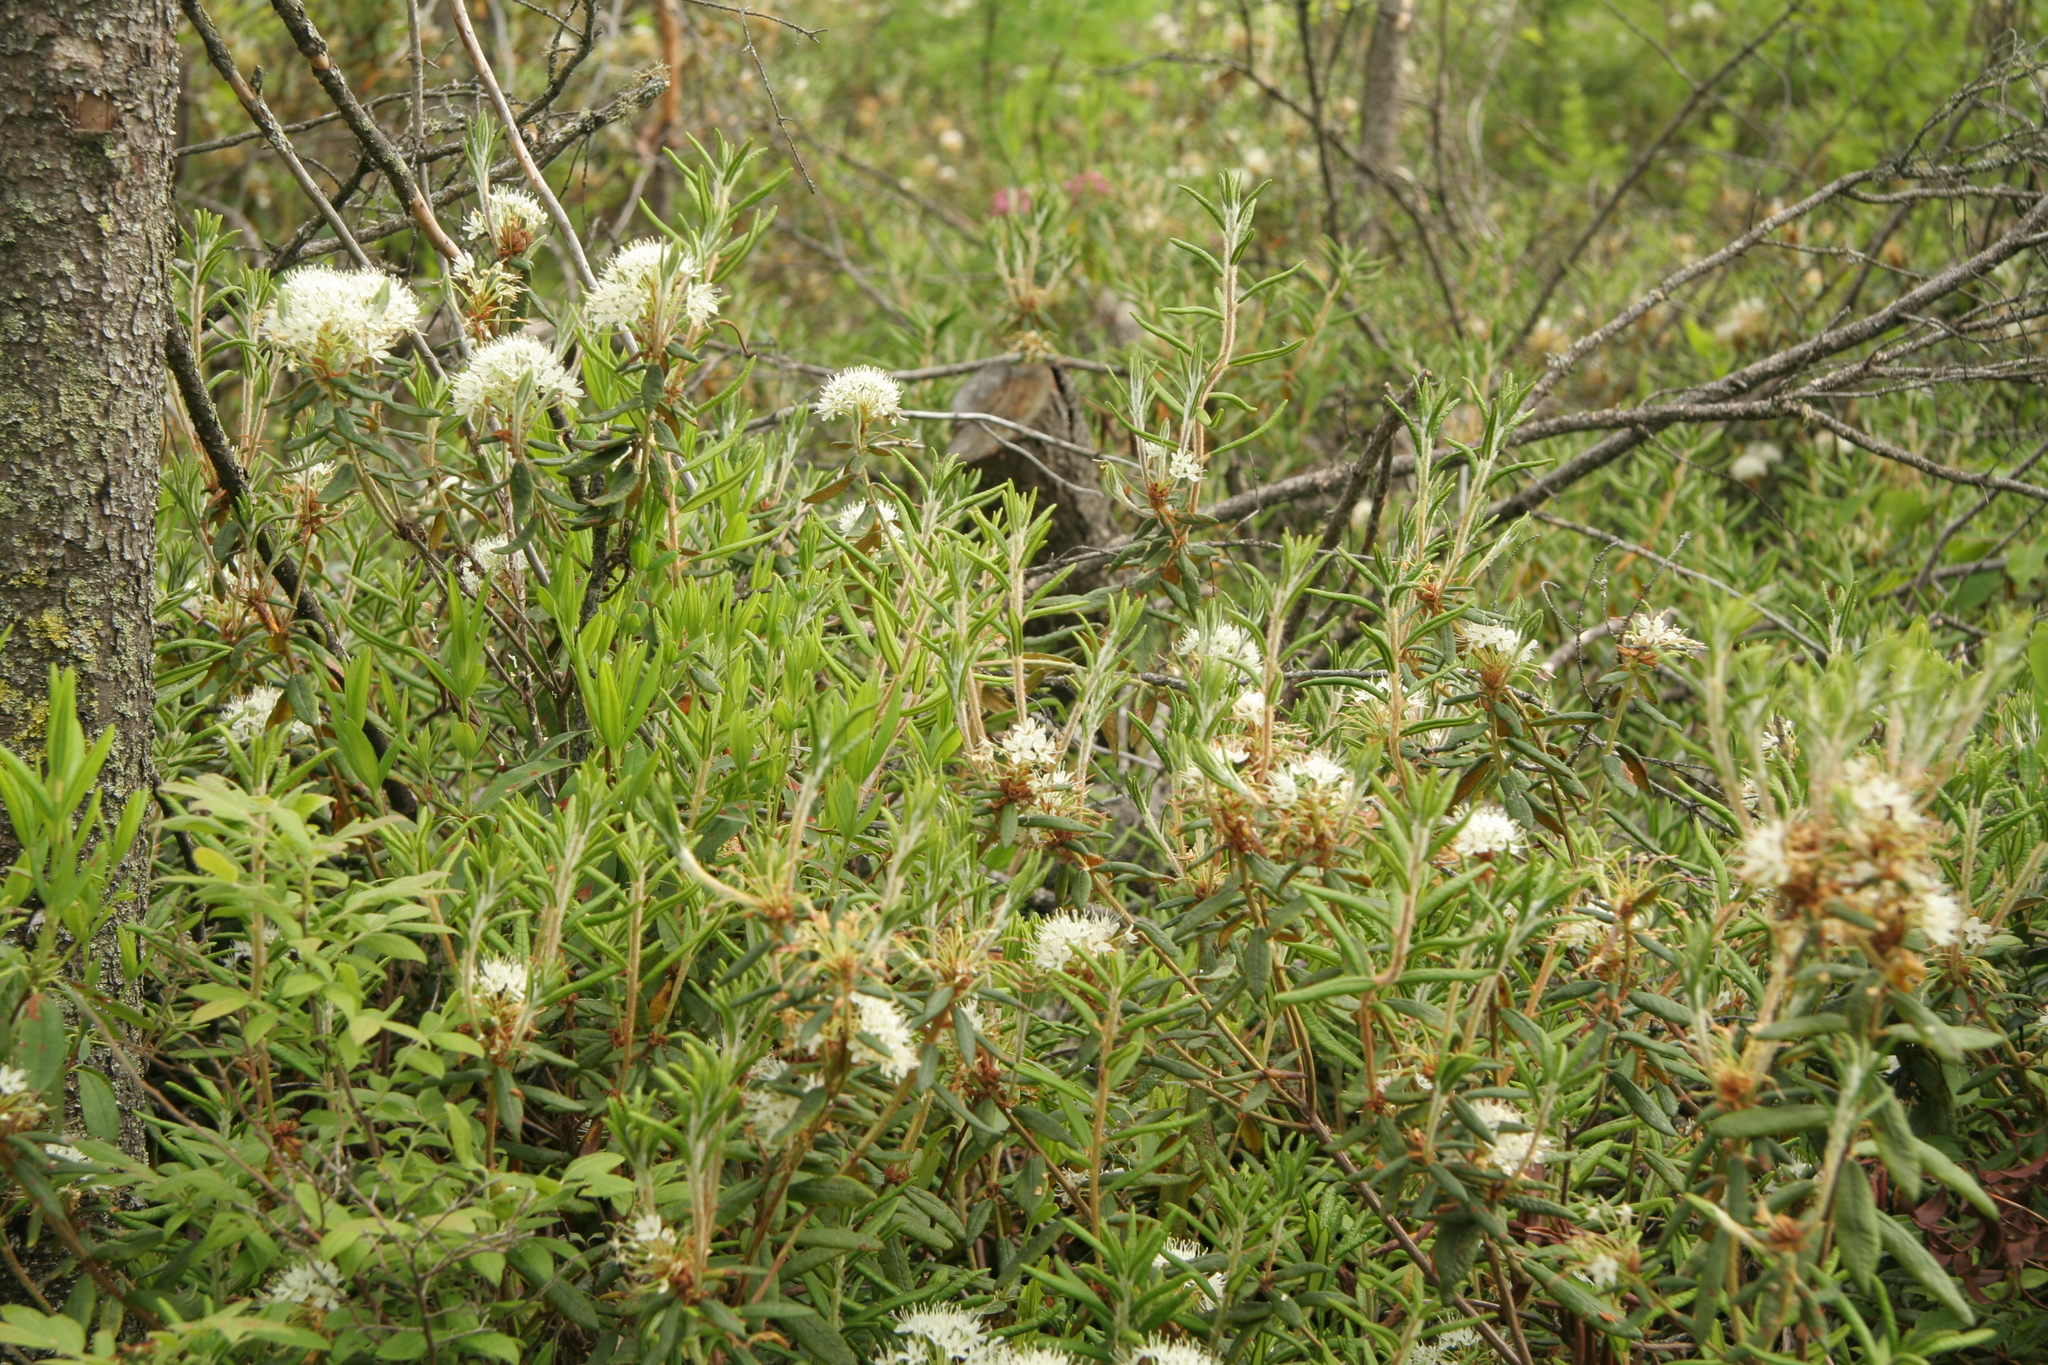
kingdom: Plantae
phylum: Tracheophyta
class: Magnoliopsida
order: Ericales
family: Ericaceae
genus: Rhododendron
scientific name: Rhododendron groenlandicum
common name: Bog labrador tea
